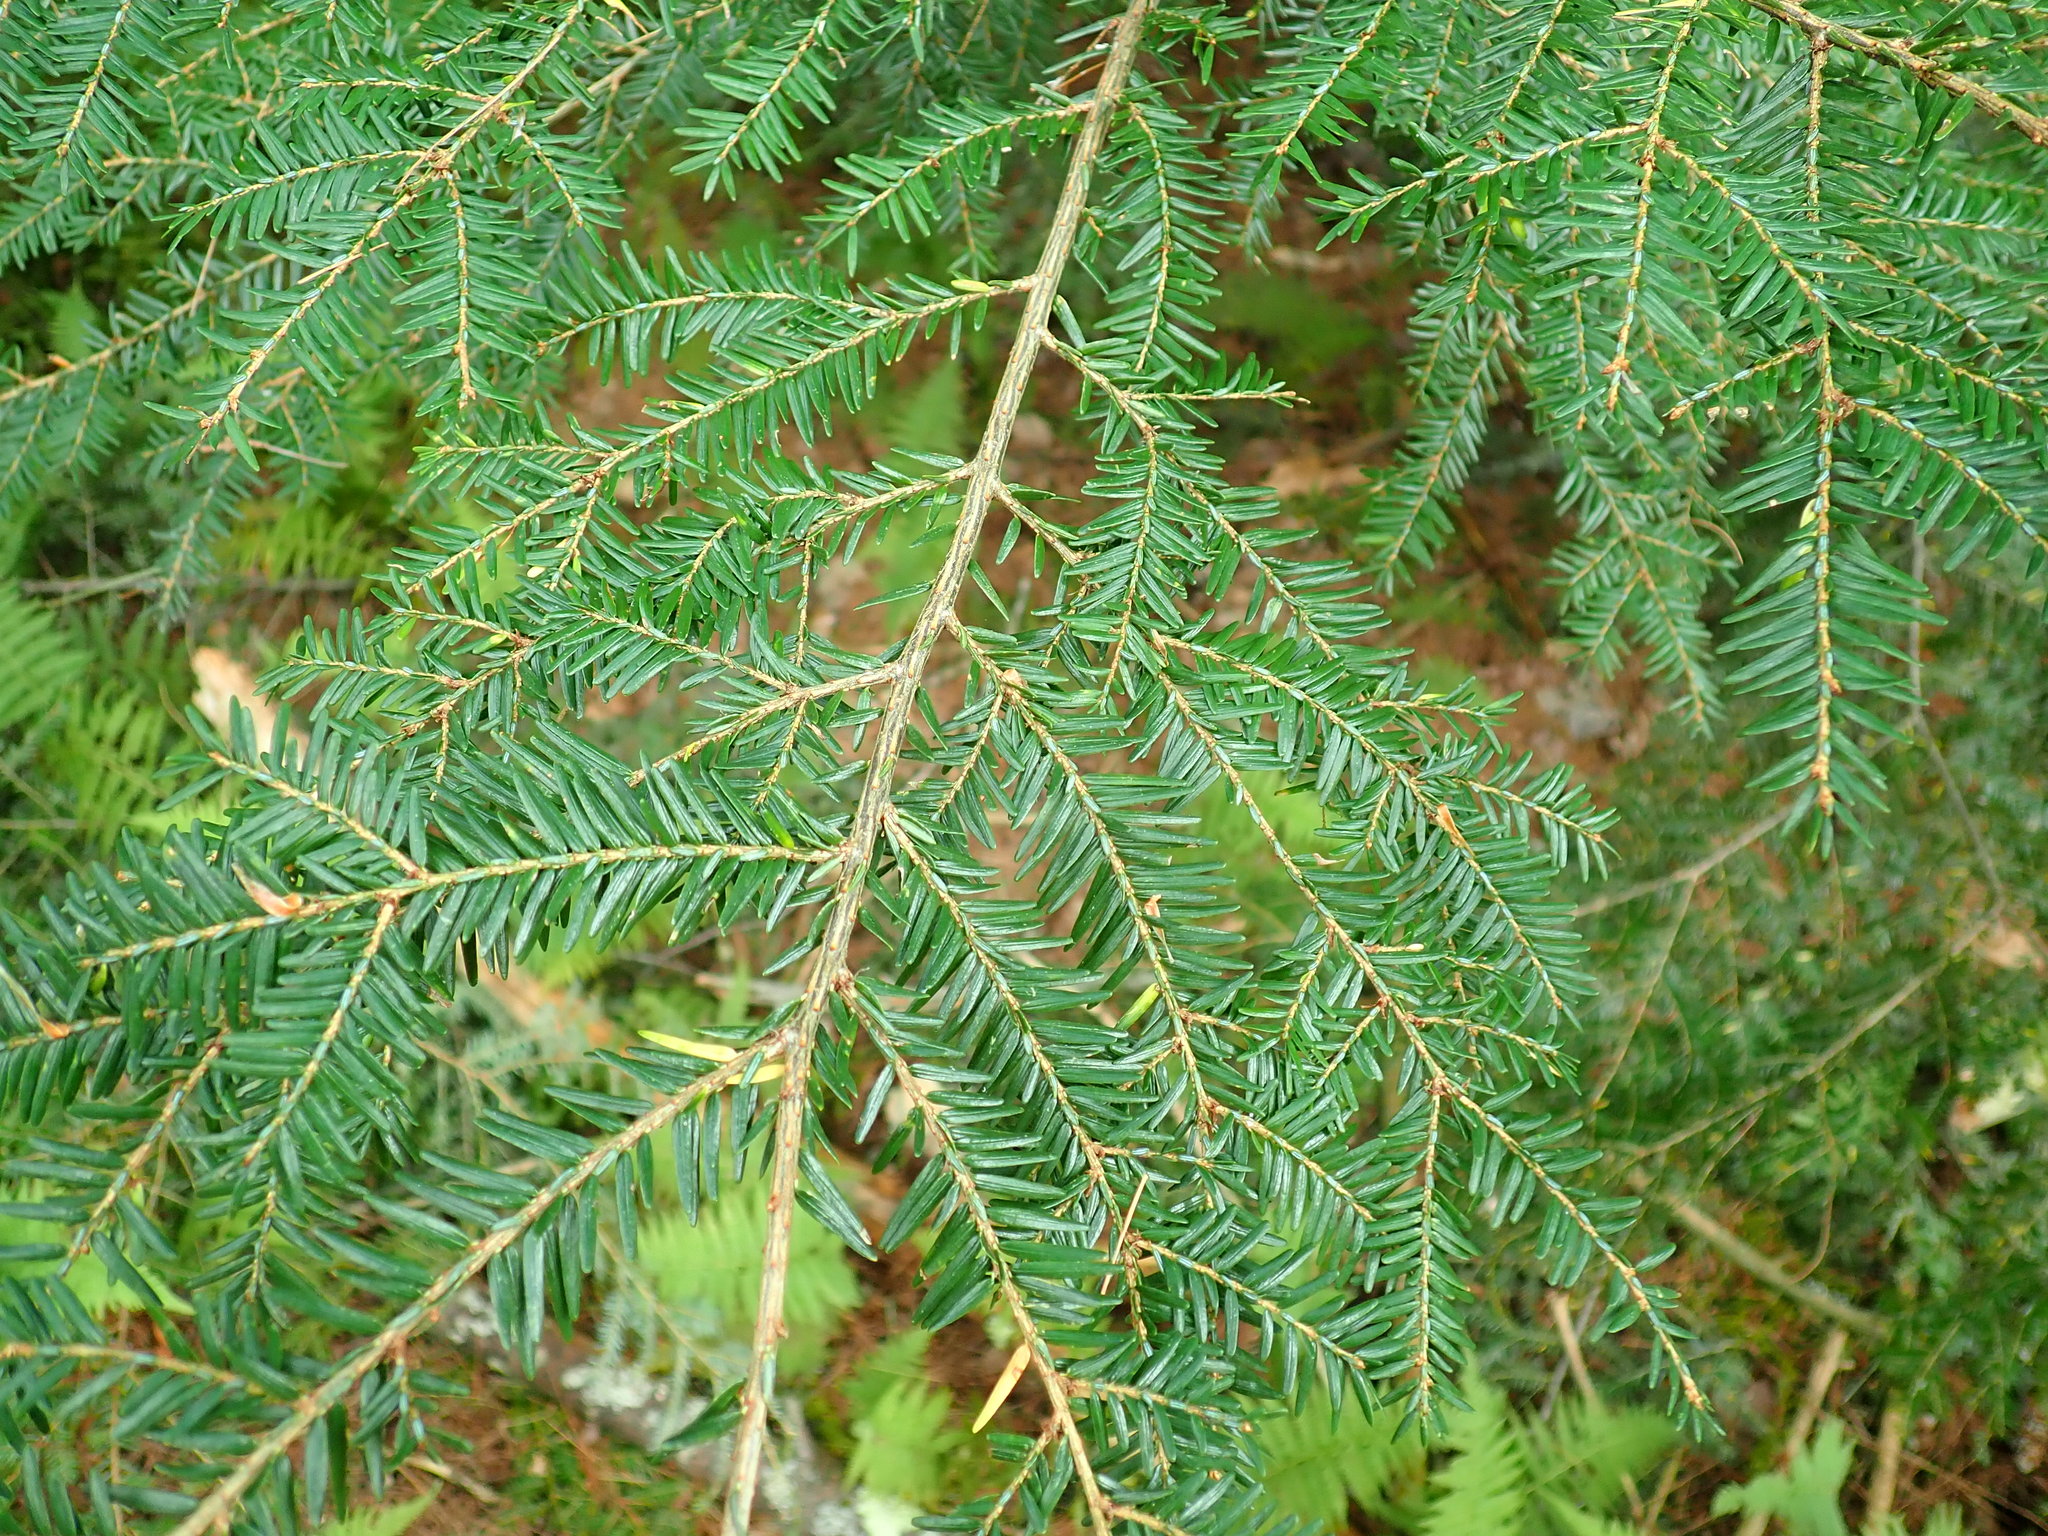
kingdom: Plantae
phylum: Tracheophyta
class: Pinopsida
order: Pinales
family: Pinaceae
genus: Tsuga
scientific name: Tsuga canadensis
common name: Eastern hemlock
